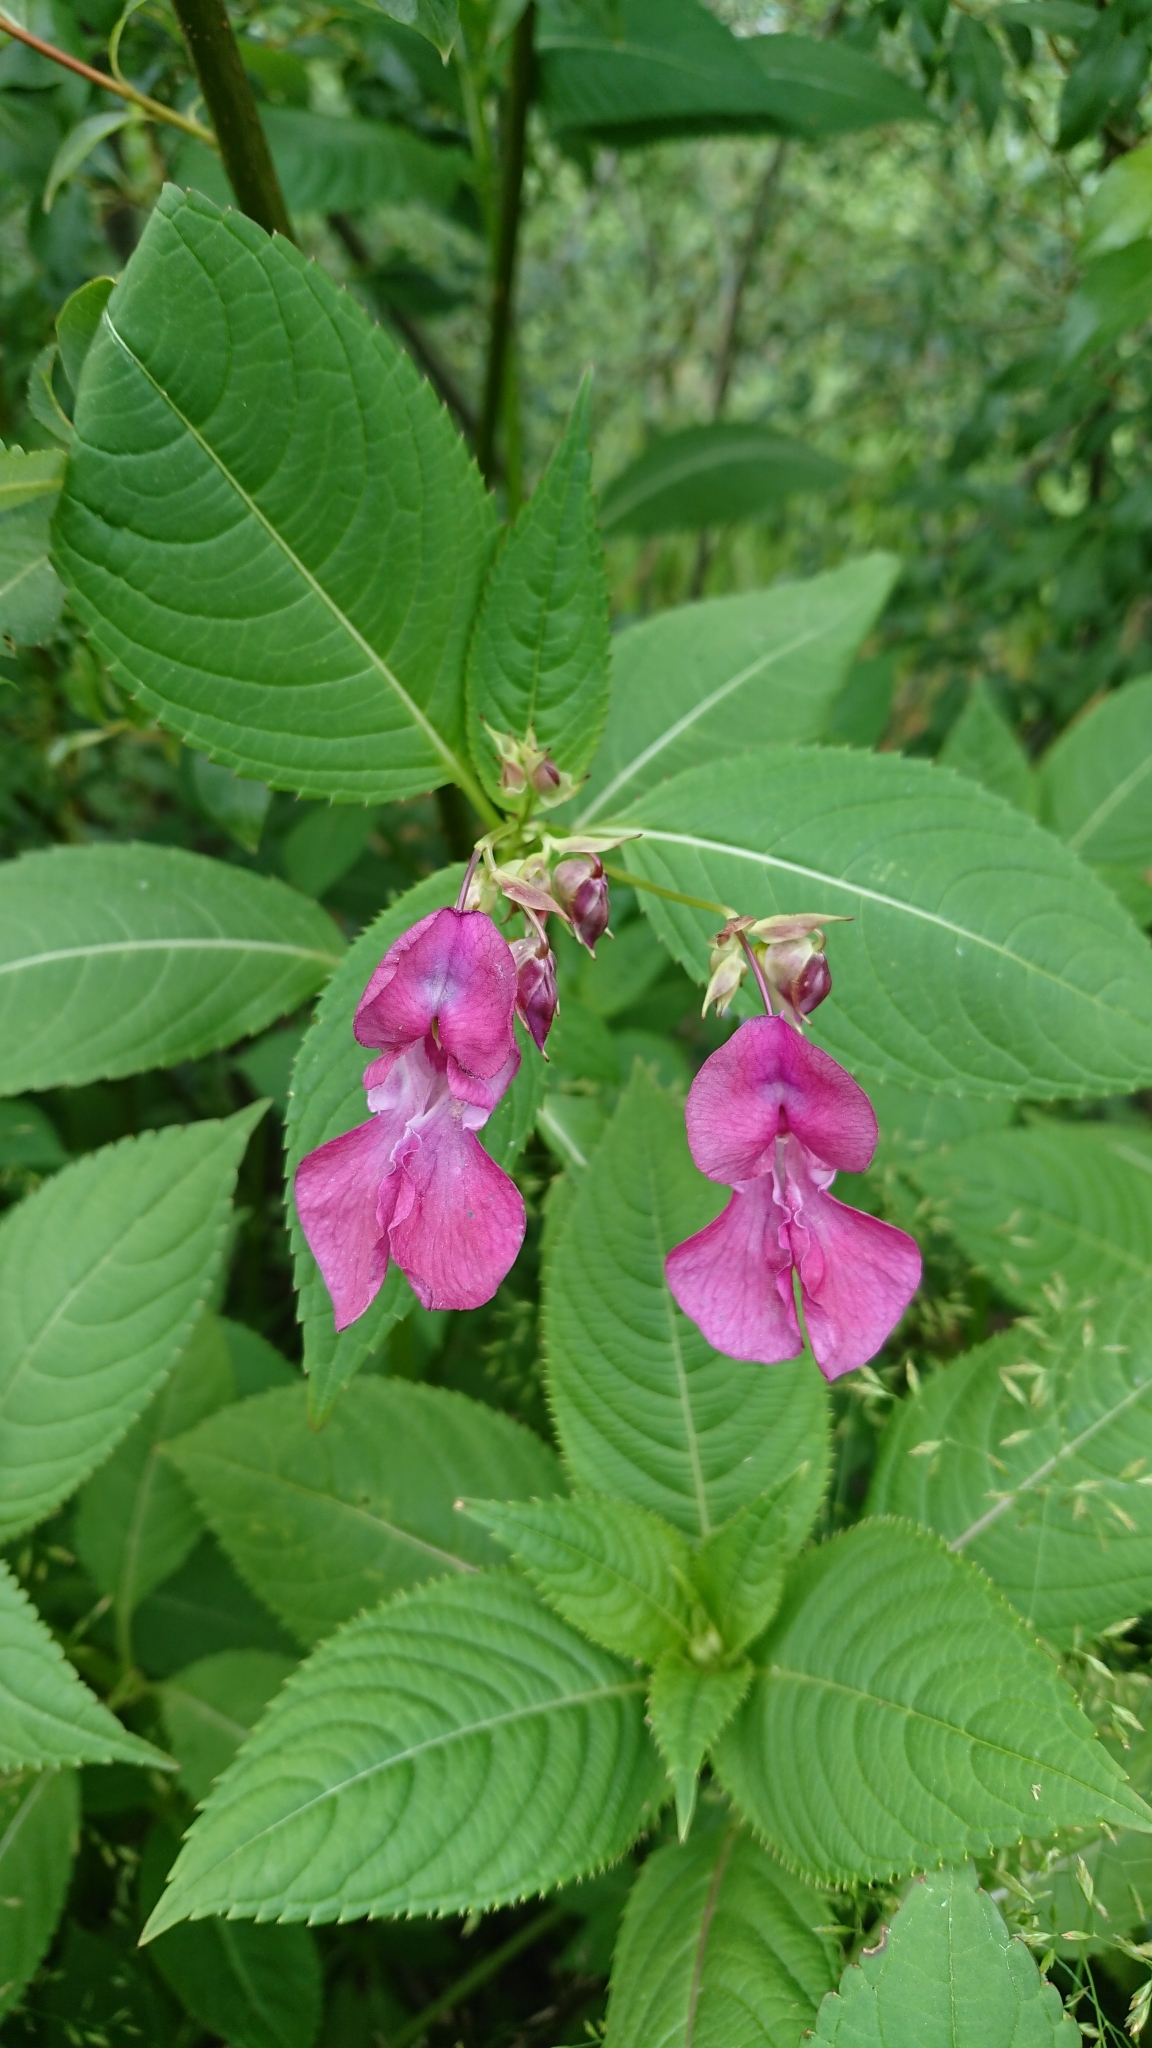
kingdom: Plantae
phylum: Tracheophyta
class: Magnoliopsida
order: Ericales
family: Balsaminaceae
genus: Impatiens
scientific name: Impatiens glandulifera
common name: Himalayan balsam
